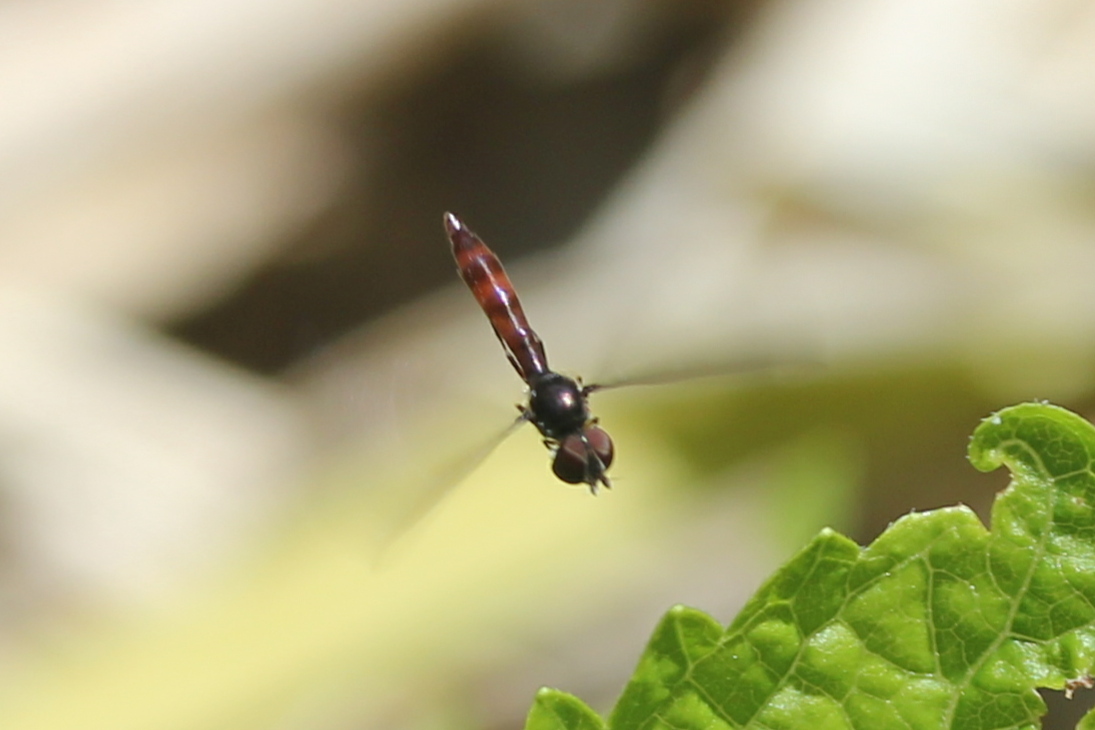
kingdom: Animalia
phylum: Arthropoda
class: Insecta
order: Diptera
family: Syrphidae
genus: Ocyptamus
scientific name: Ocyptamus fuscipennis
